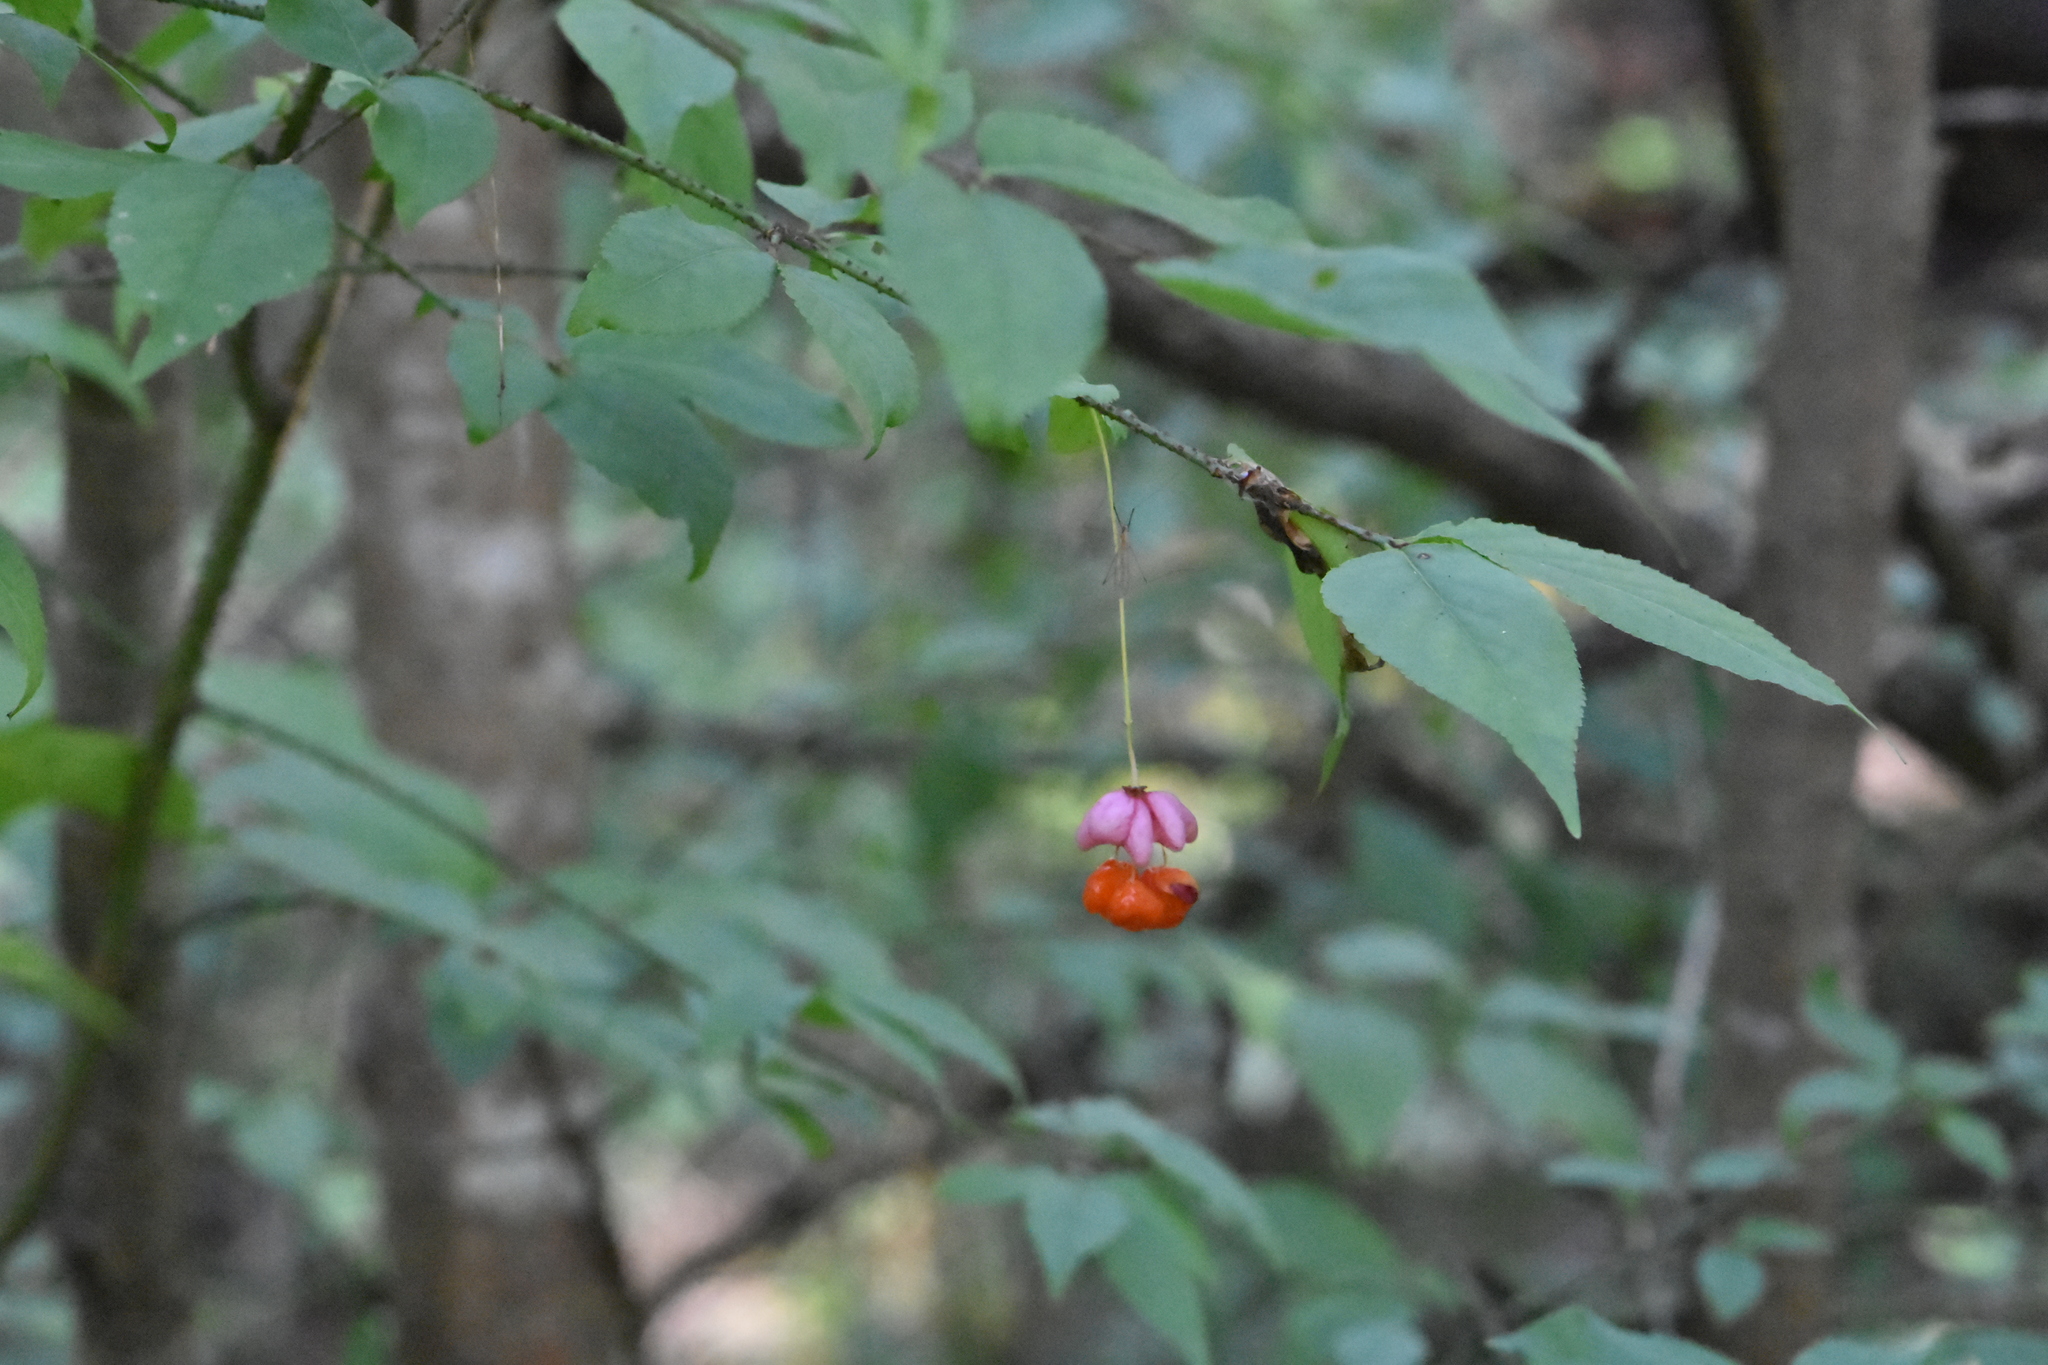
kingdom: Plantae
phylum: Tracheophyta
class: Magnoliopsida
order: Celastrales
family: Celastraceae
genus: Euonymus
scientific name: Euonymus verrucosus
